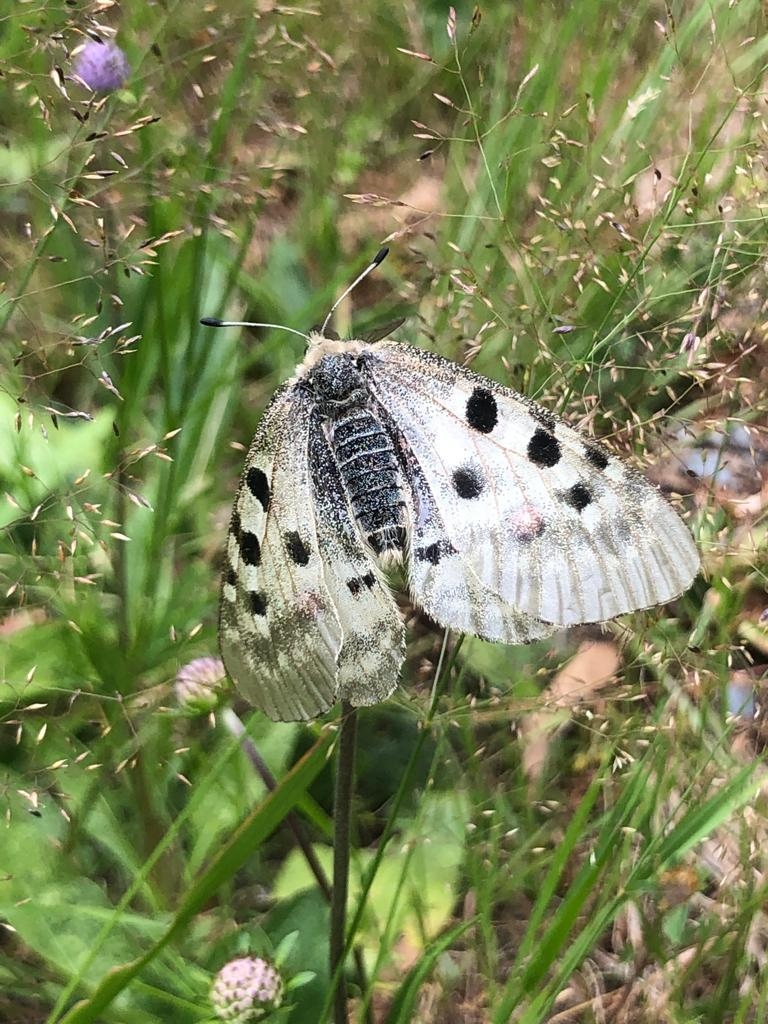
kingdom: Animalia
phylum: Arthropoda
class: Insecta
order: Lepidoptera
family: Papilionidae
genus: Parnassius
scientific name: Parnassius apollo
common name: Apollo
